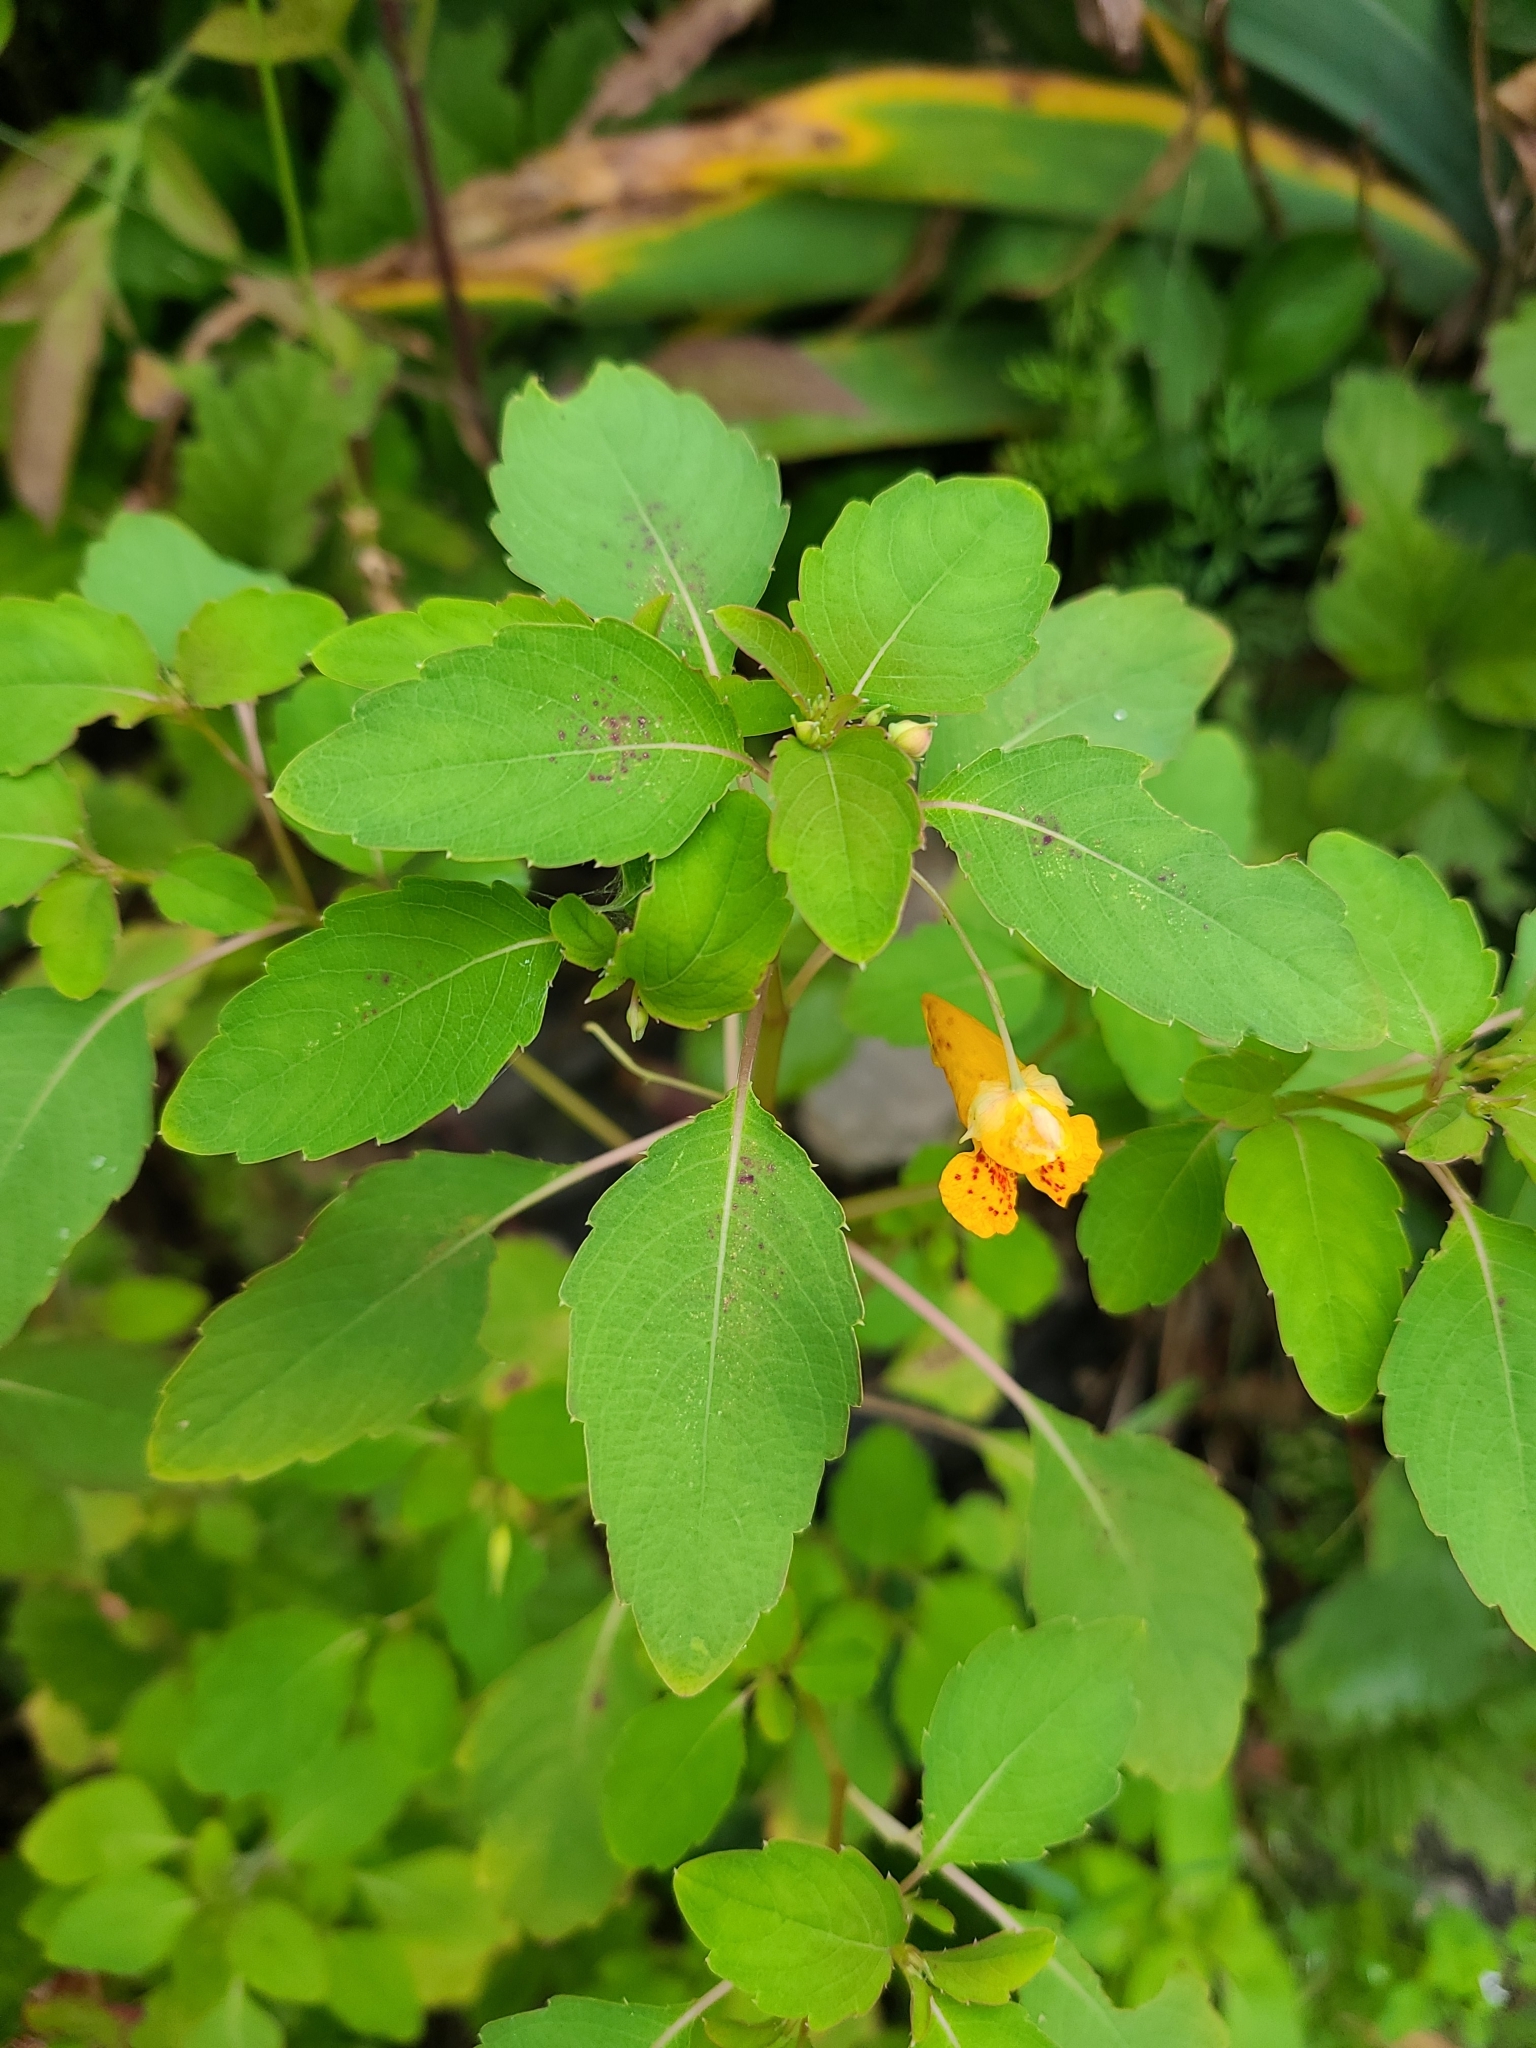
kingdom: Plantae
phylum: Tracheophyta
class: Magnoliopsida
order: Ericales
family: Balsaminaceae
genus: Impatiens
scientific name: Impatiens capensis
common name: Orange balsam
